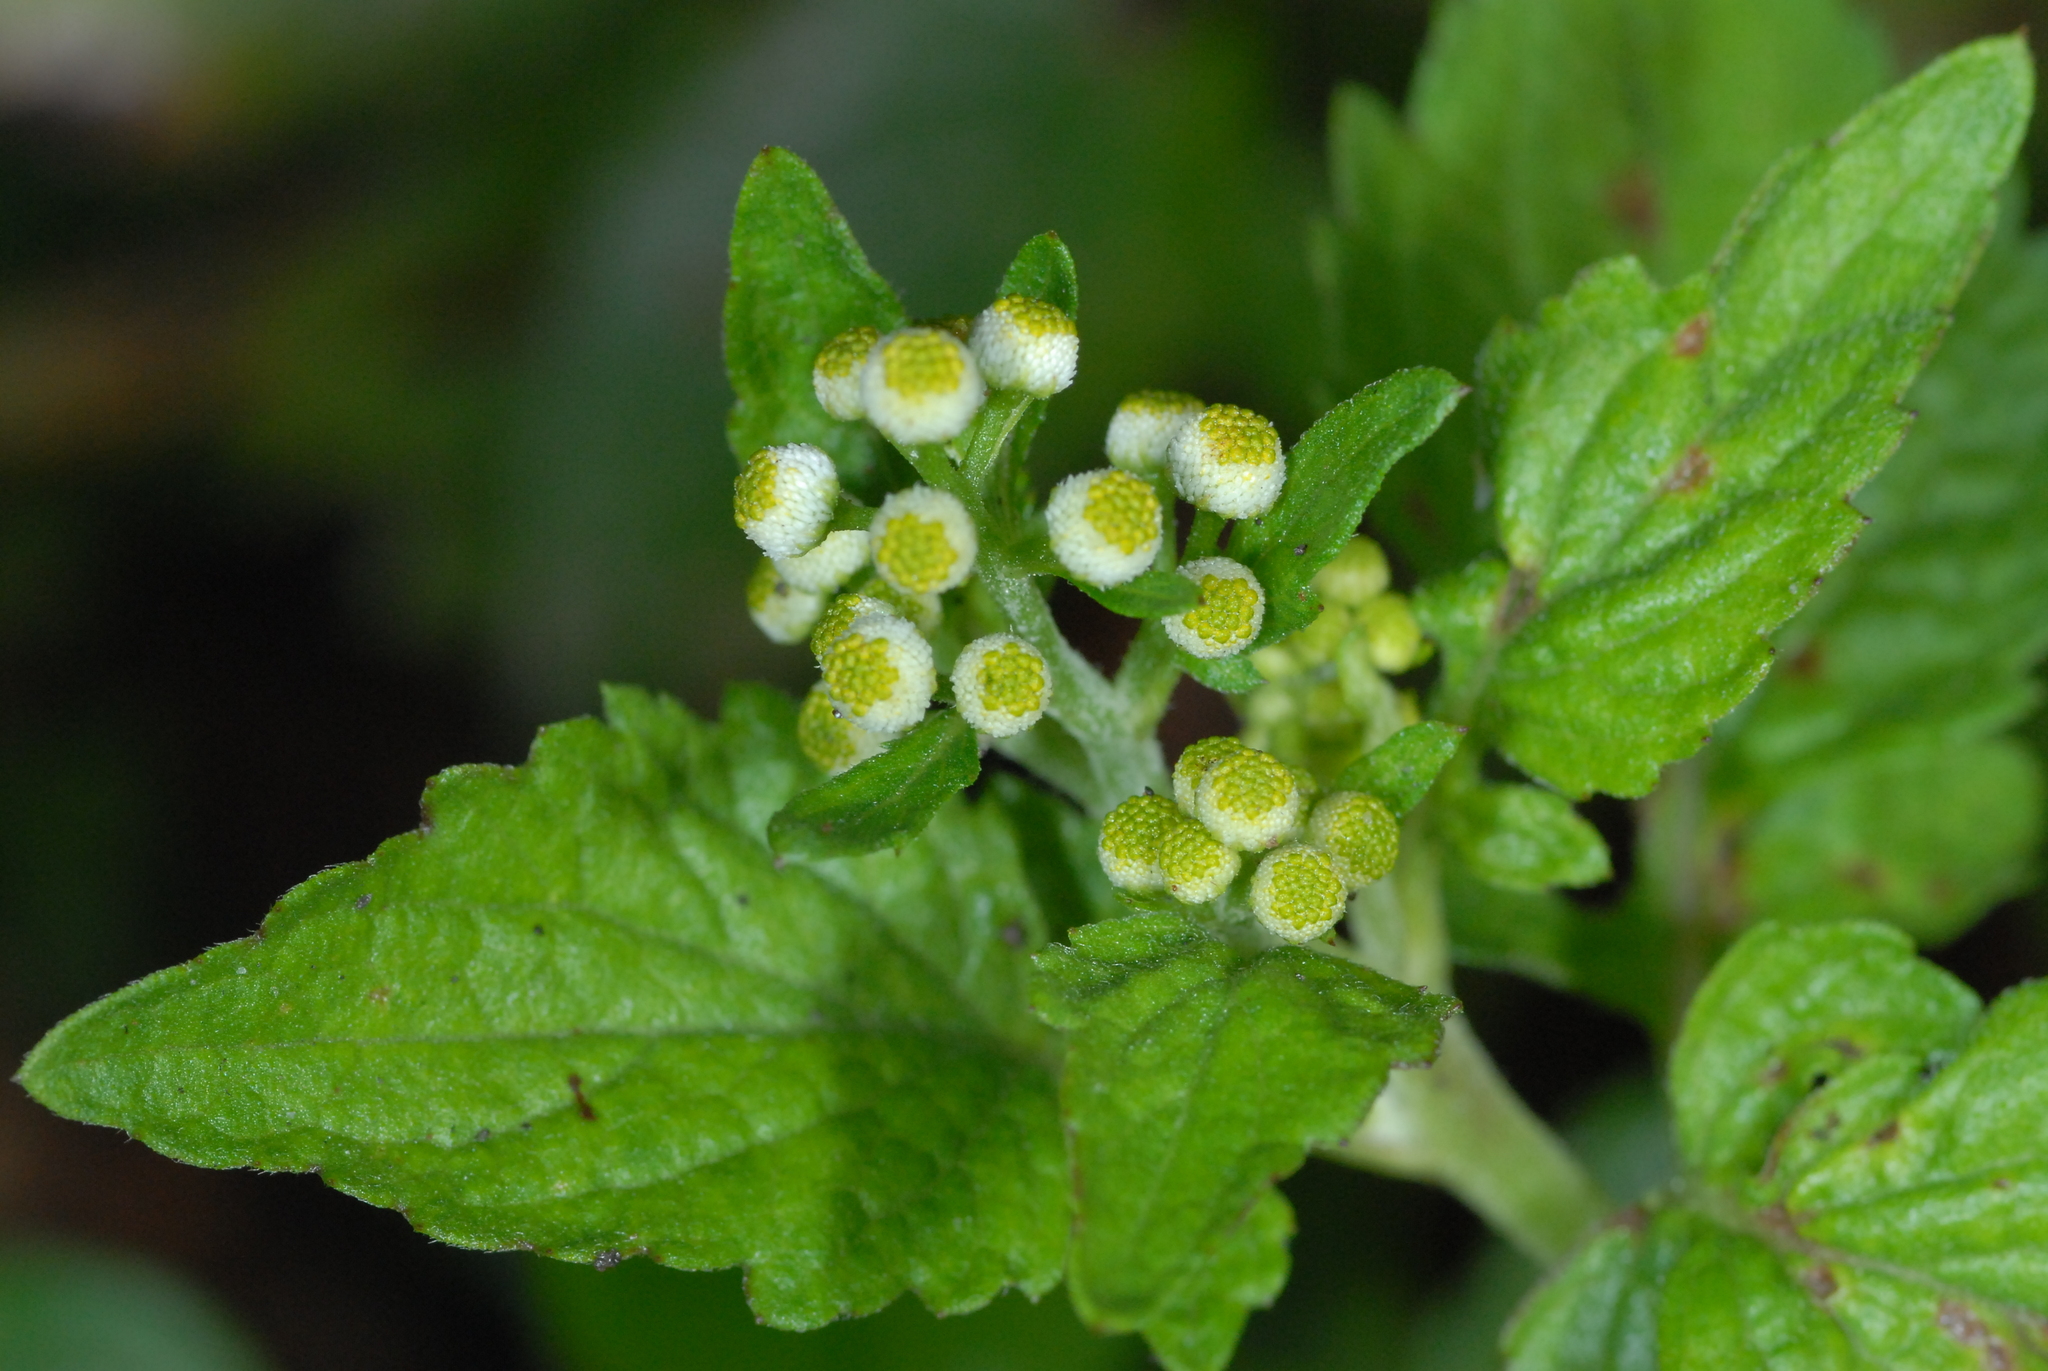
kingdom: Plantae
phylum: Tracheophyta
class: Magnoliopsida
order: Asterales
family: Asteraceae
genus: Dichrocephala
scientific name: Dichrocephala integrifolia
